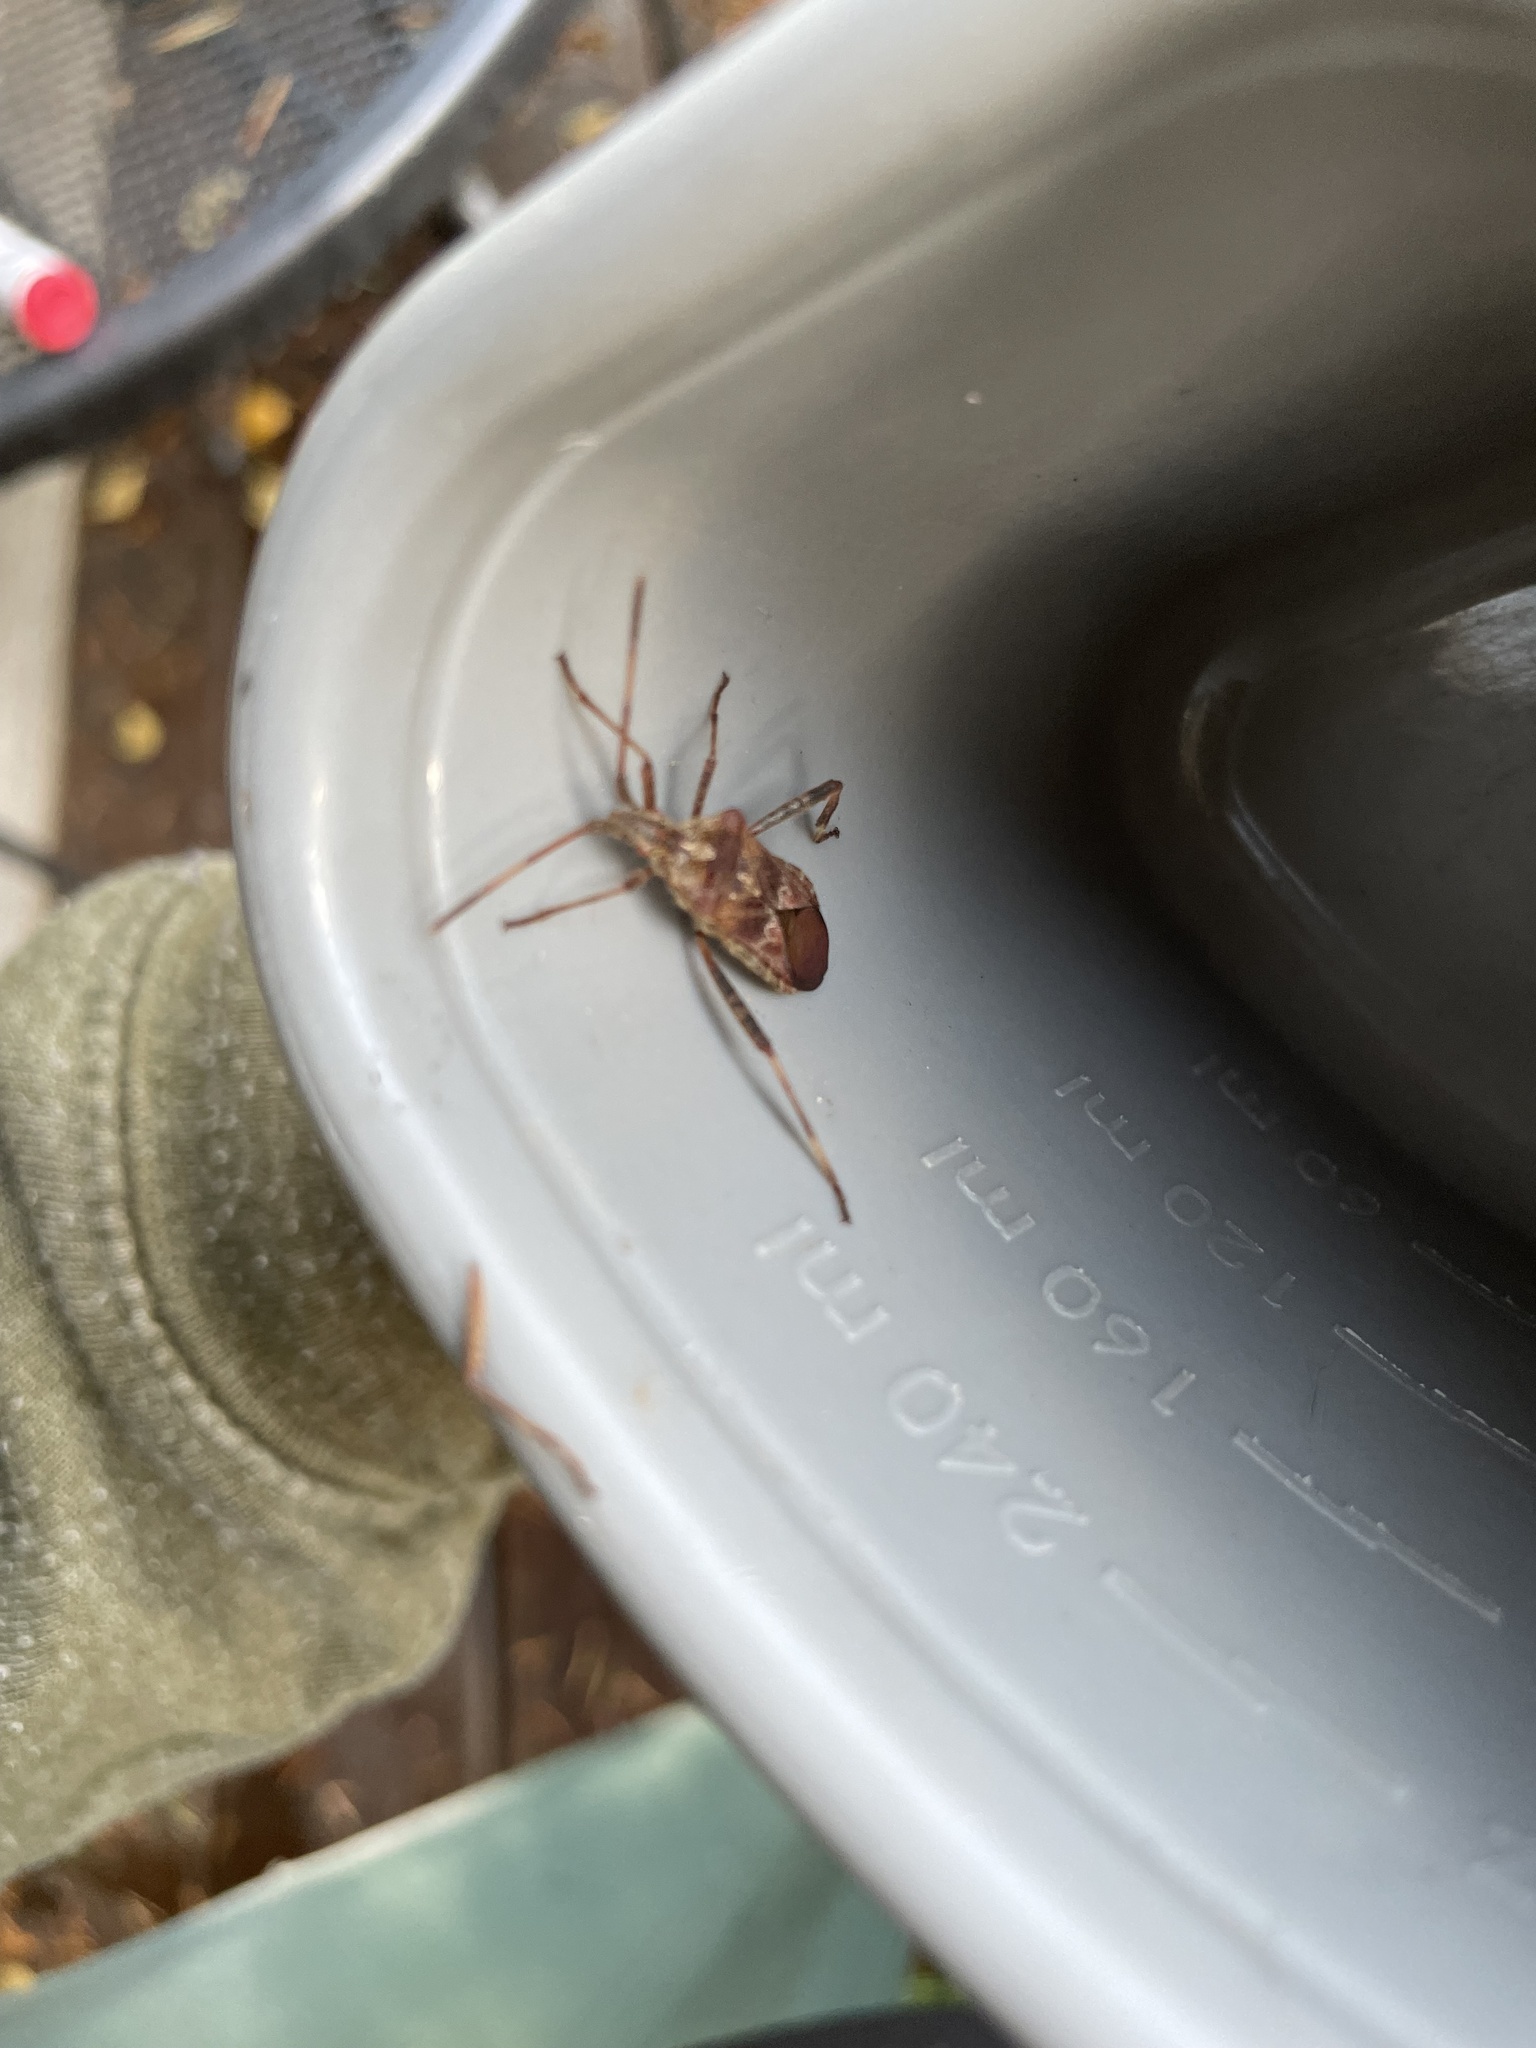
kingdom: Animalia
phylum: Arthropoda
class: Insecta
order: Hemiptera
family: Coreidae
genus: Leptoglossus
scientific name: Leptoglossus occidentalis
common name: Western conifer-seed bug
